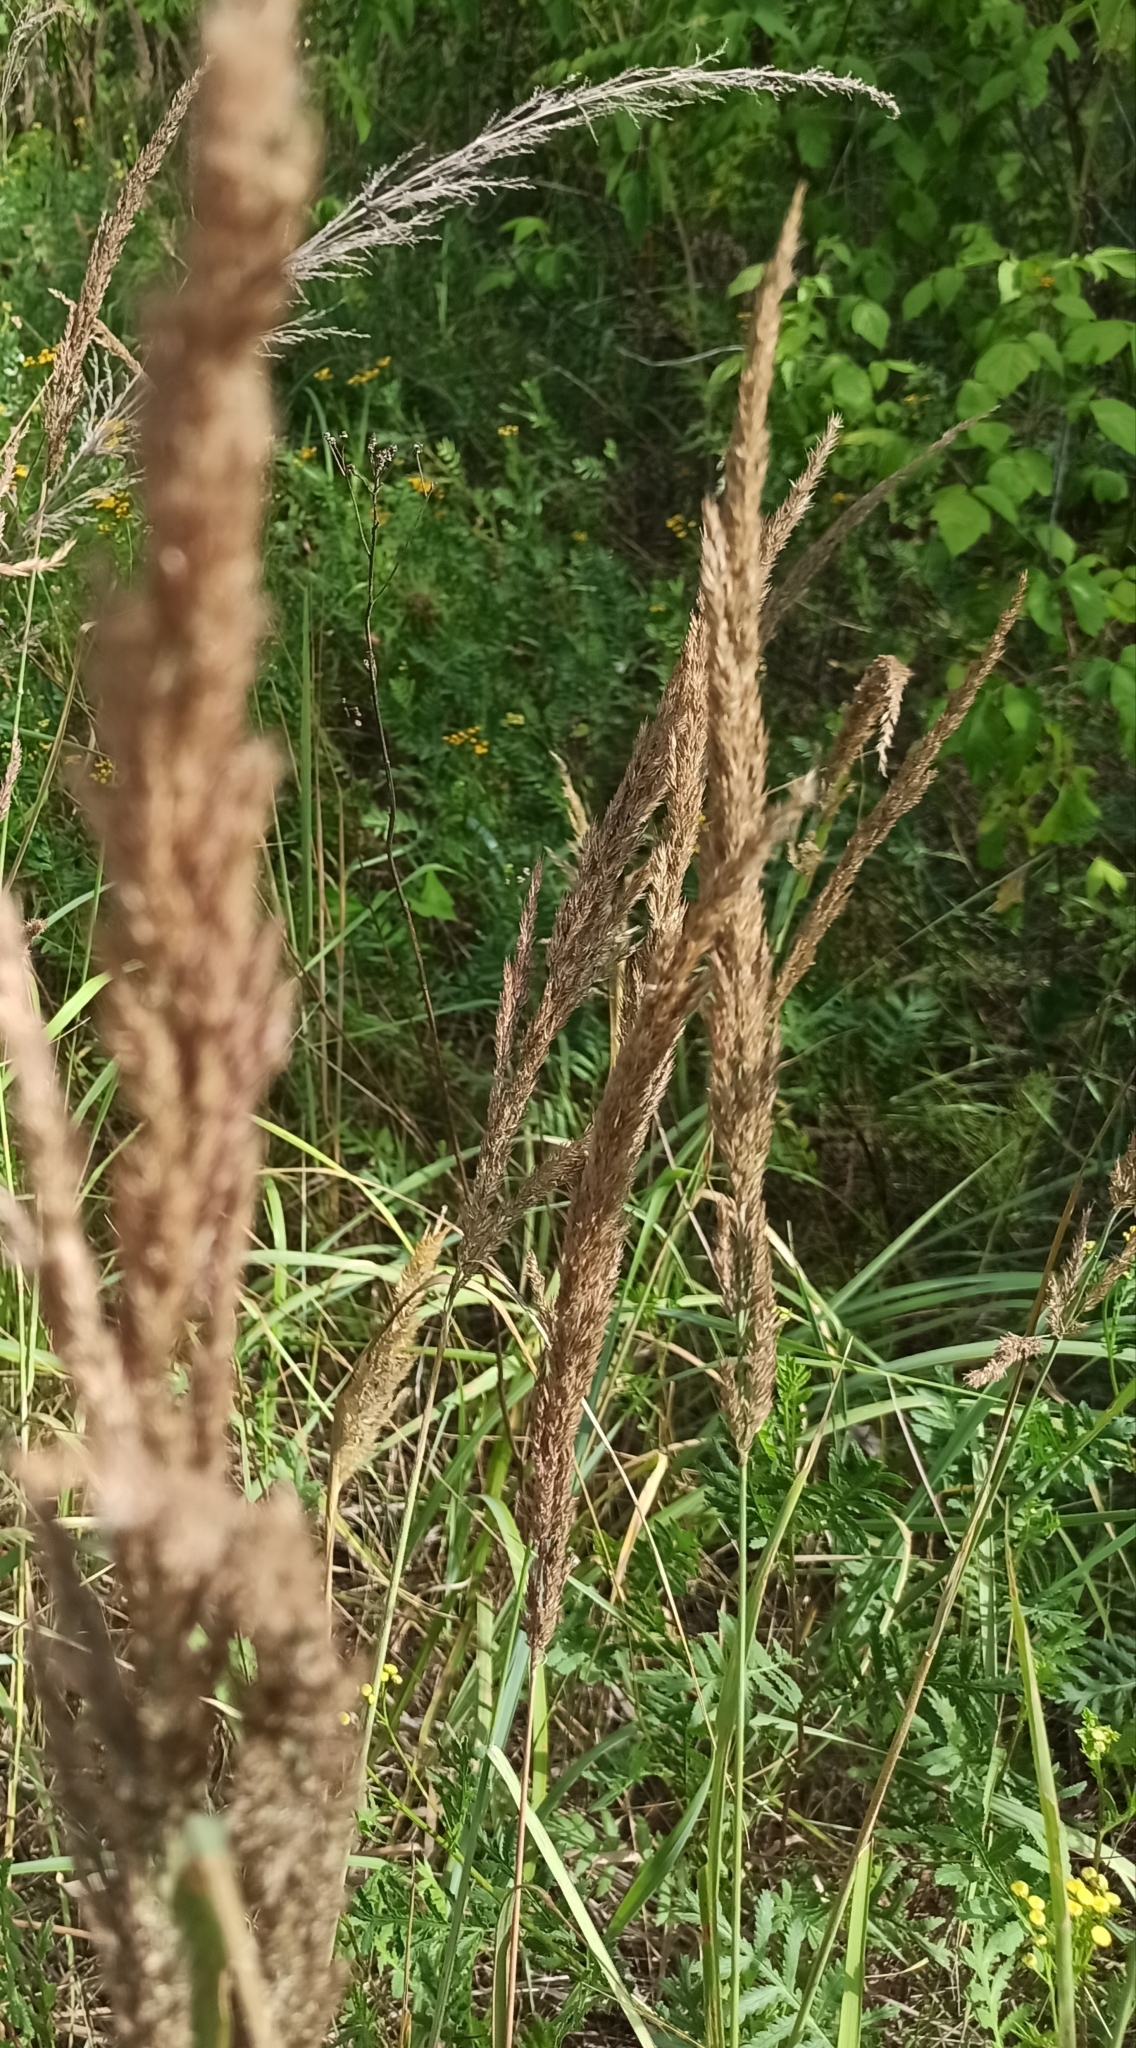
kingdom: Plantae
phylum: Tracheophyta
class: Liliopsida
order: Poales
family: Poaceae
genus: Calamagrostis
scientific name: Calamagrostis epigejos
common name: Wood small-reed
